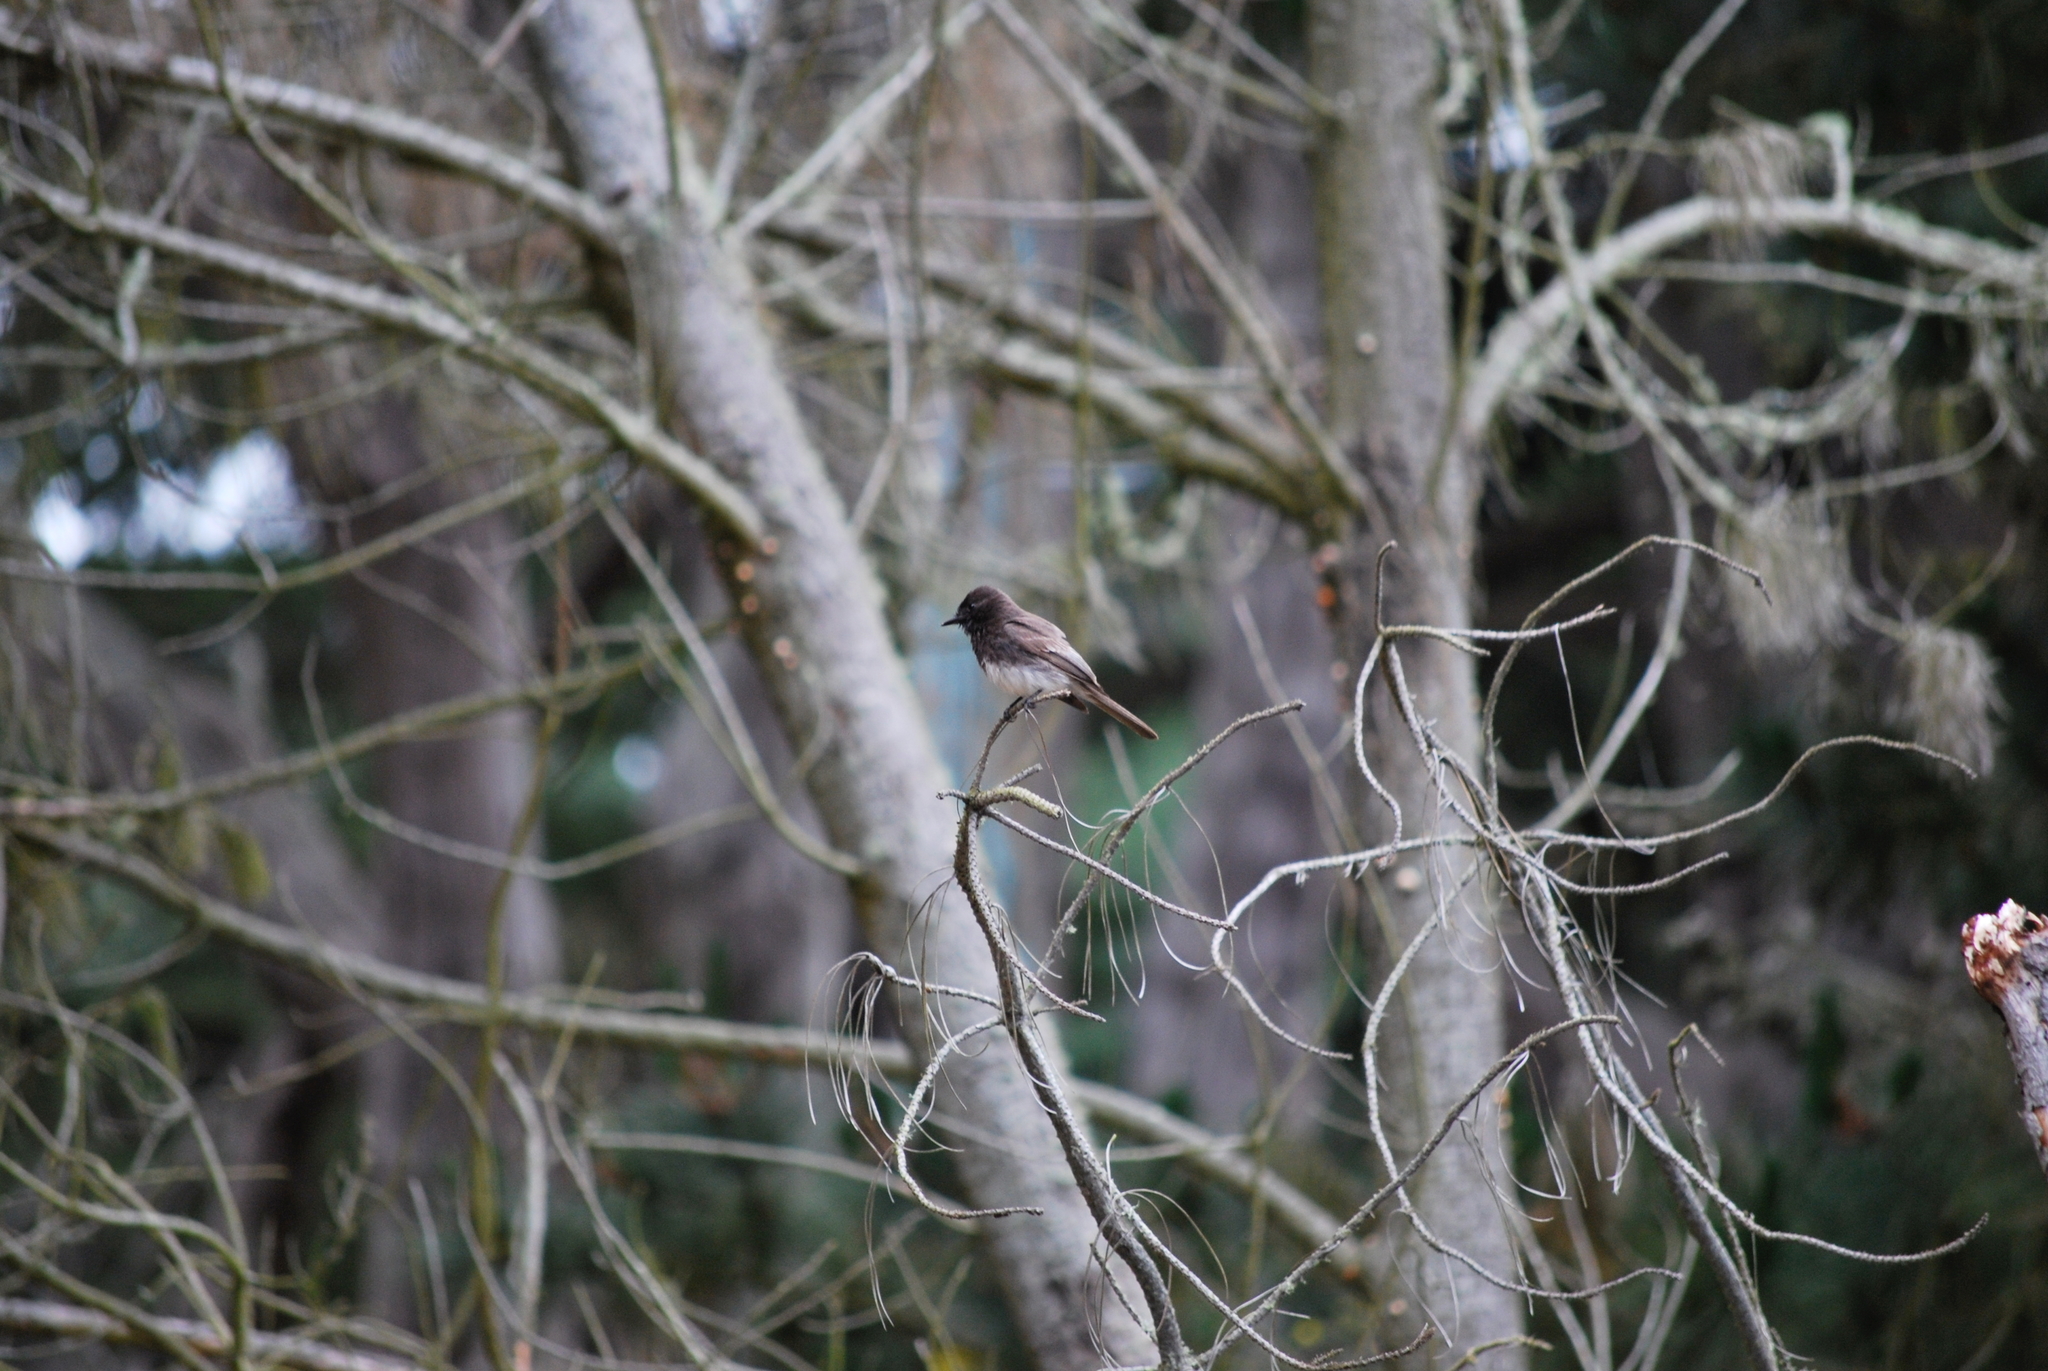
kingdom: Animalia
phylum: Chordata
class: Aves
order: Passeriformes
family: Tyrannidae
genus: Sayornis
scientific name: Sayornis nigricans
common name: Black phoebe
